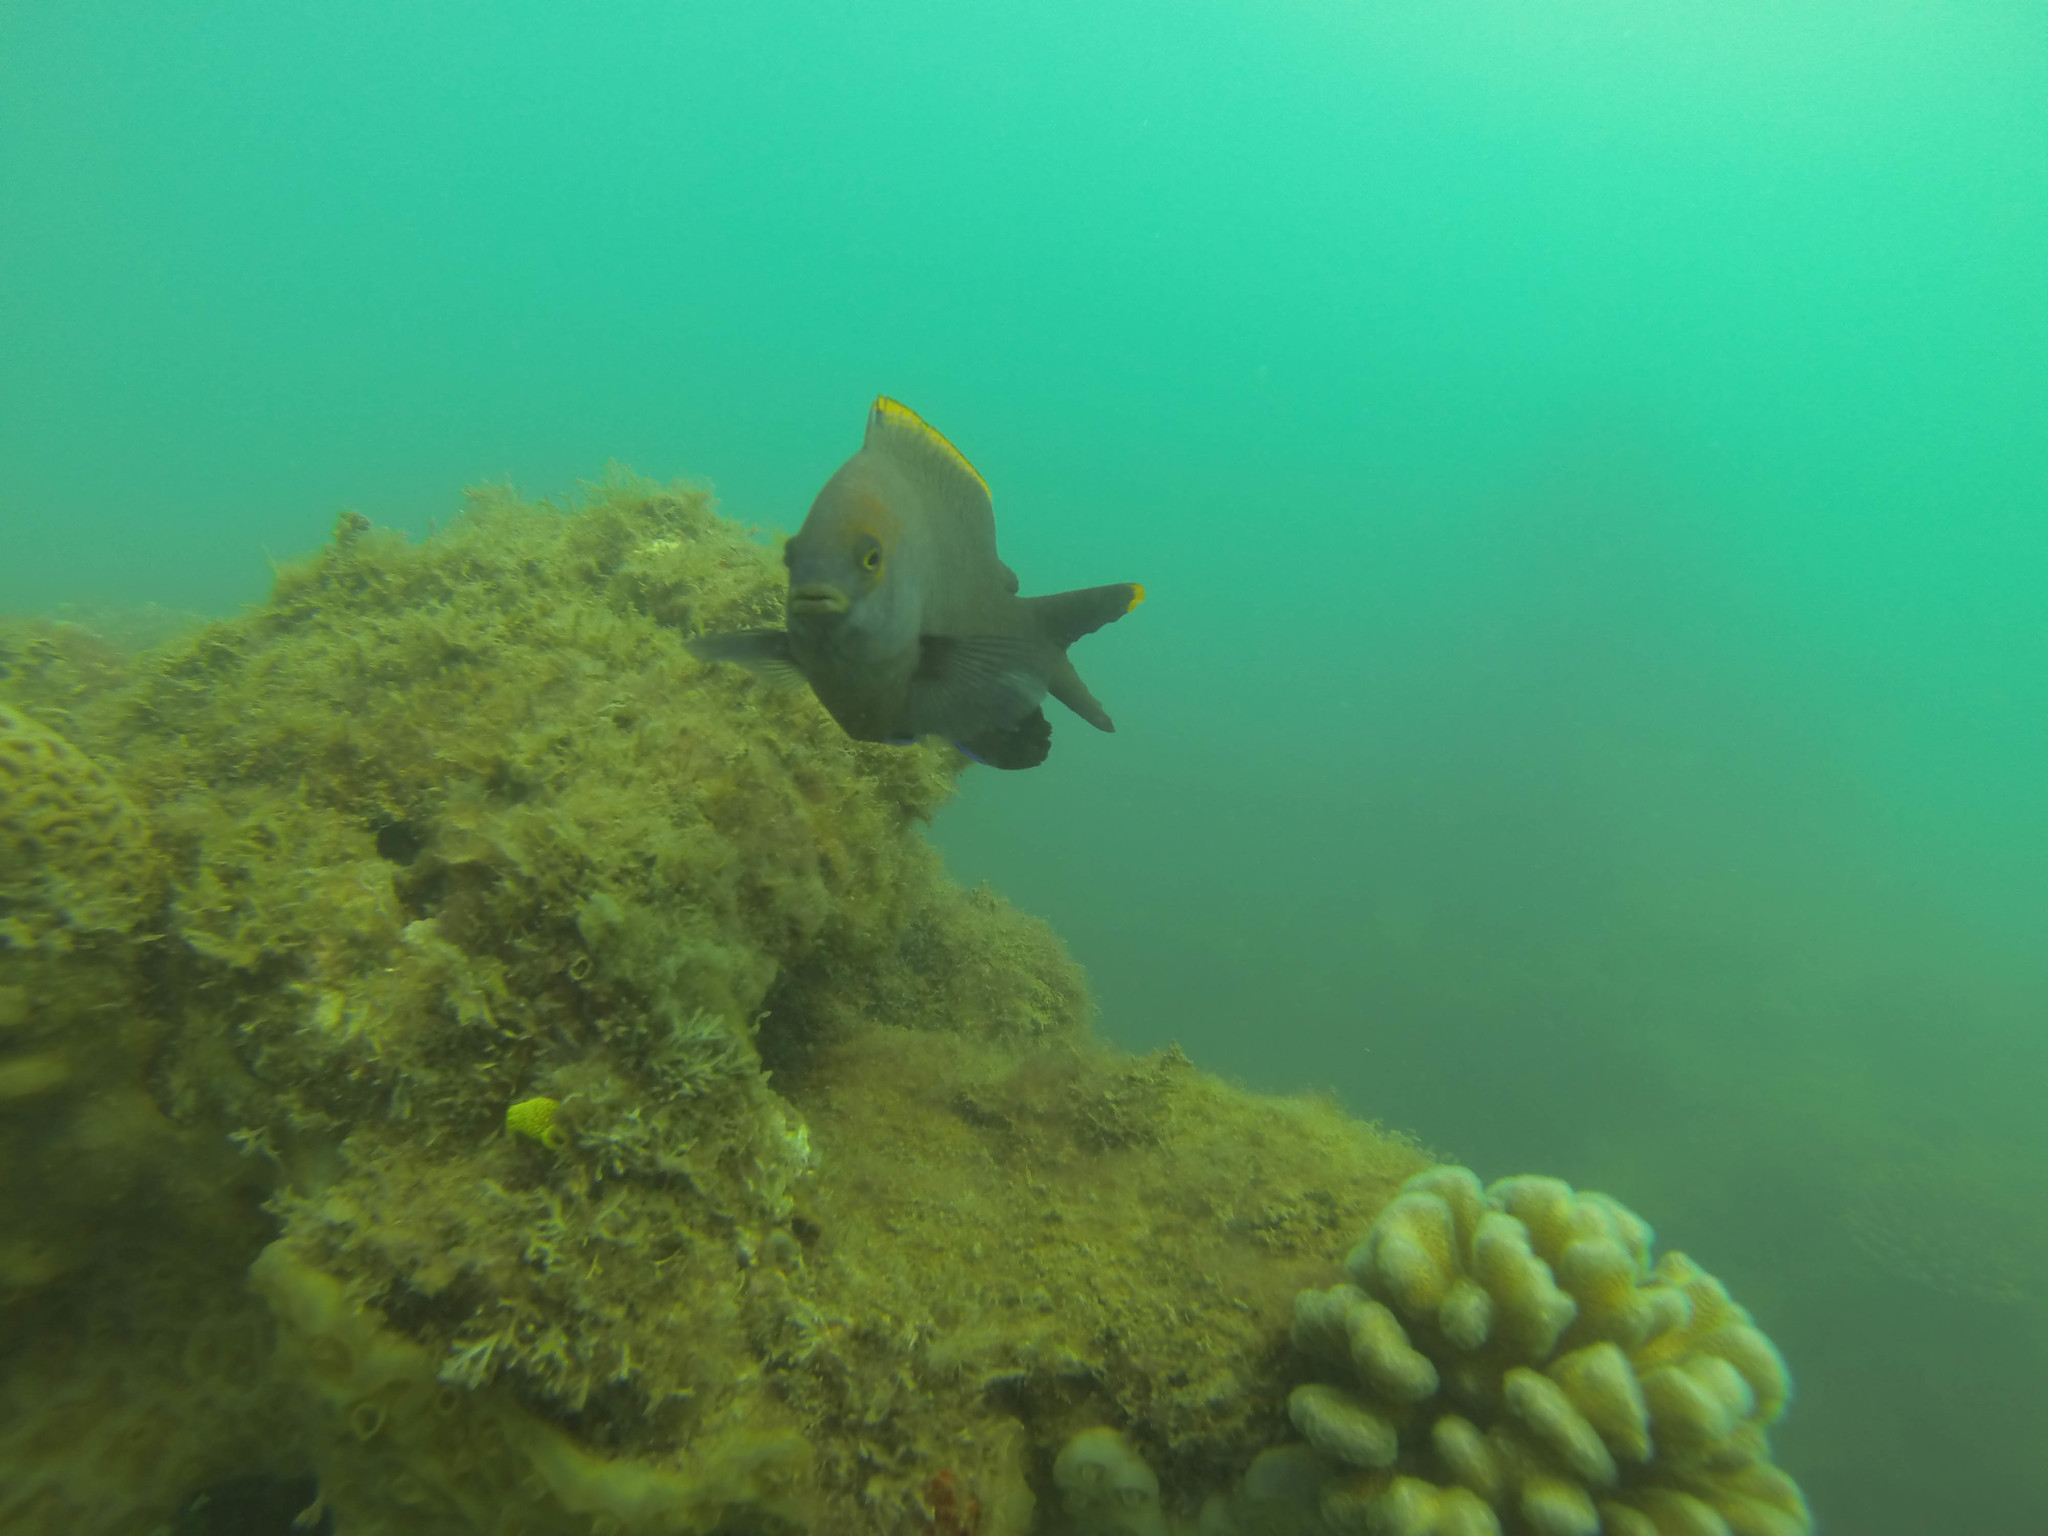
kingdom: Animalia
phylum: Chordata
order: Perciformes
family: Pomacentridae
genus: Stegastes
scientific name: Stegastes apicalis
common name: Australian gregory
